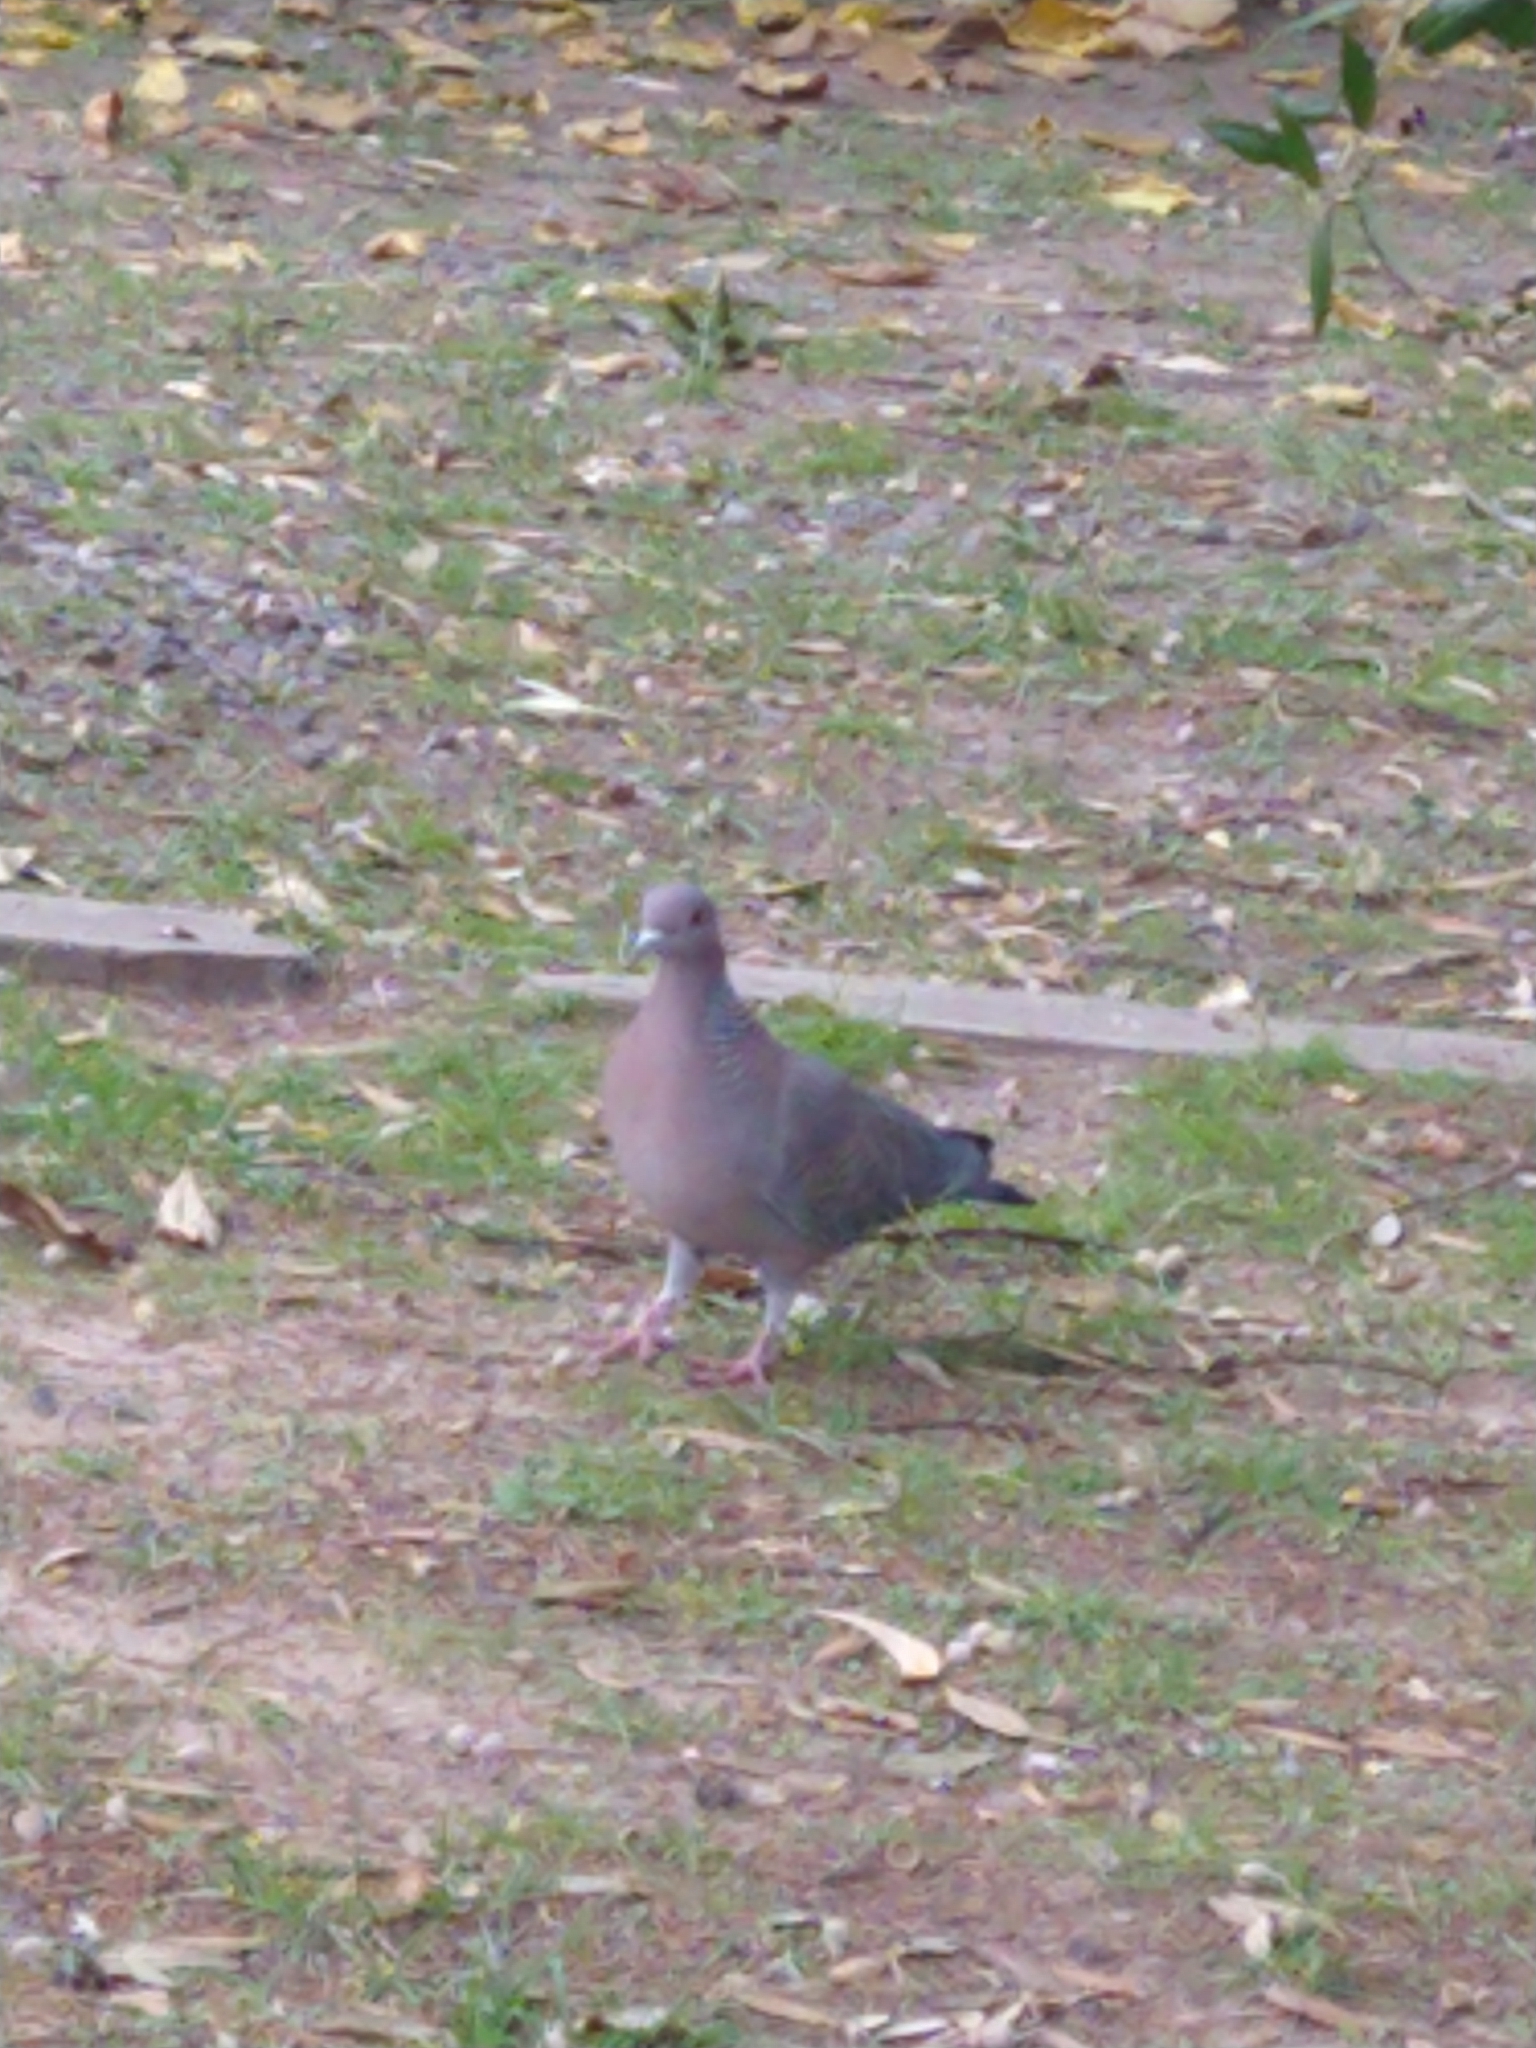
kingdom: Animalia
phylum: Chordata
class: Aves
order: Columbiformes
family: Columbidae
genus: Patagioenas
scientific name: Patagioenas picazuro
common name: Picazuro pigeon
